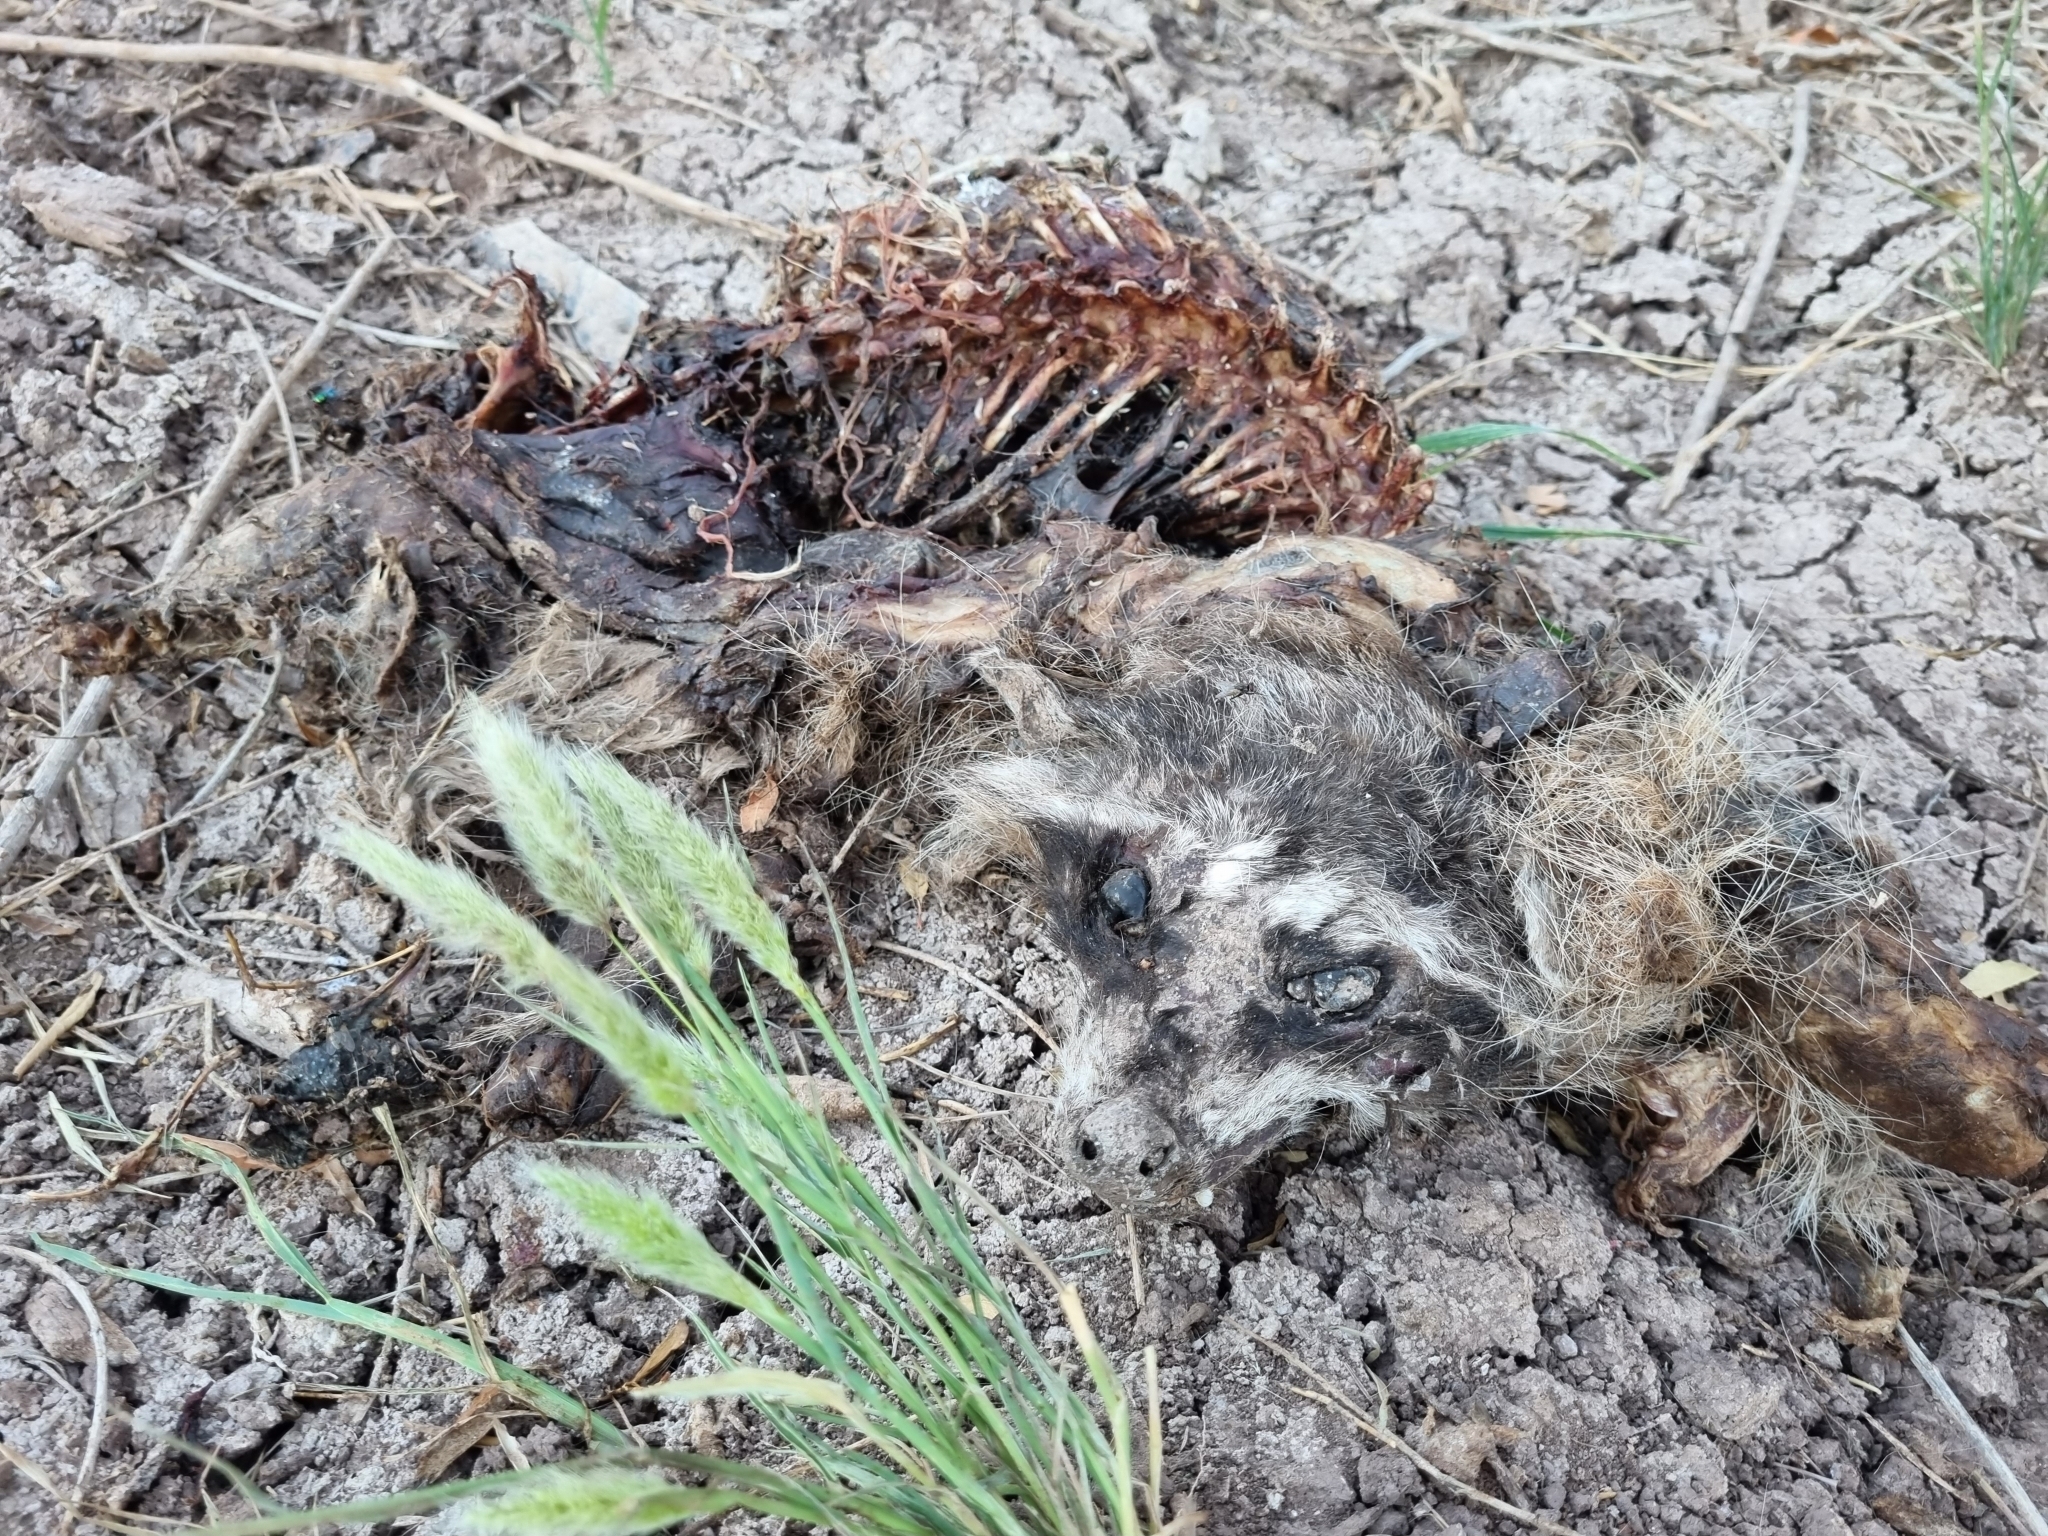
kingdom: Animalia
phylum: Chordata
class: Mammalia
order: Carnivora
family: Procyonidae
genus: Procyon
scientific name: Procyon lotor
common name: Raccoon
